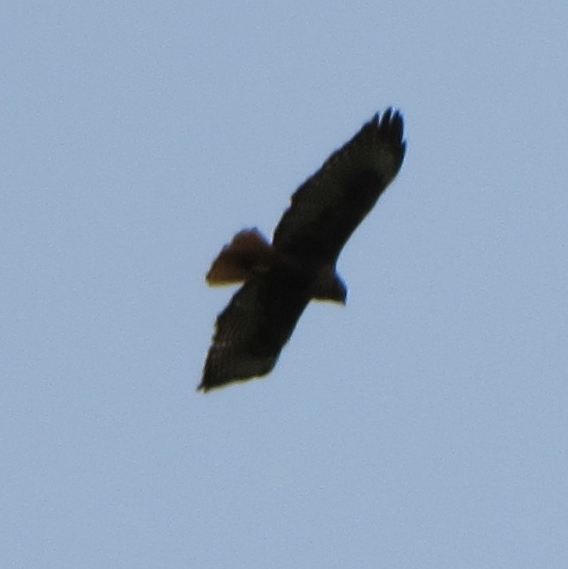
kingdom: Animalia
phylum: Chordata
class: Aves
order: Accipitriformes
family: Accipitridae
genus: Buteo
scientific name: Buteo jamaicensis
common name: Red-tailed hawk
